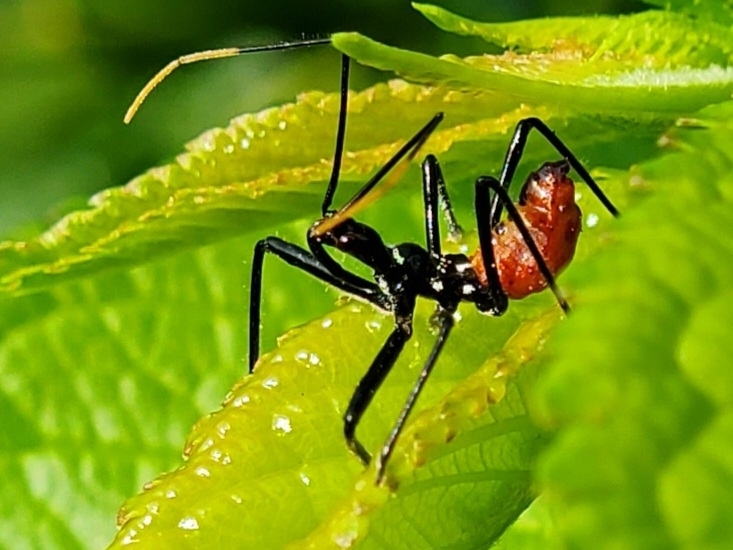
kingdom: Animalia
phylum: Arthropoda
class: Insecta
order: Hemiptera
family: Reduviidae
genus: Arilus
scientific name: Arilus cristatus
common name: North american wheel bug
